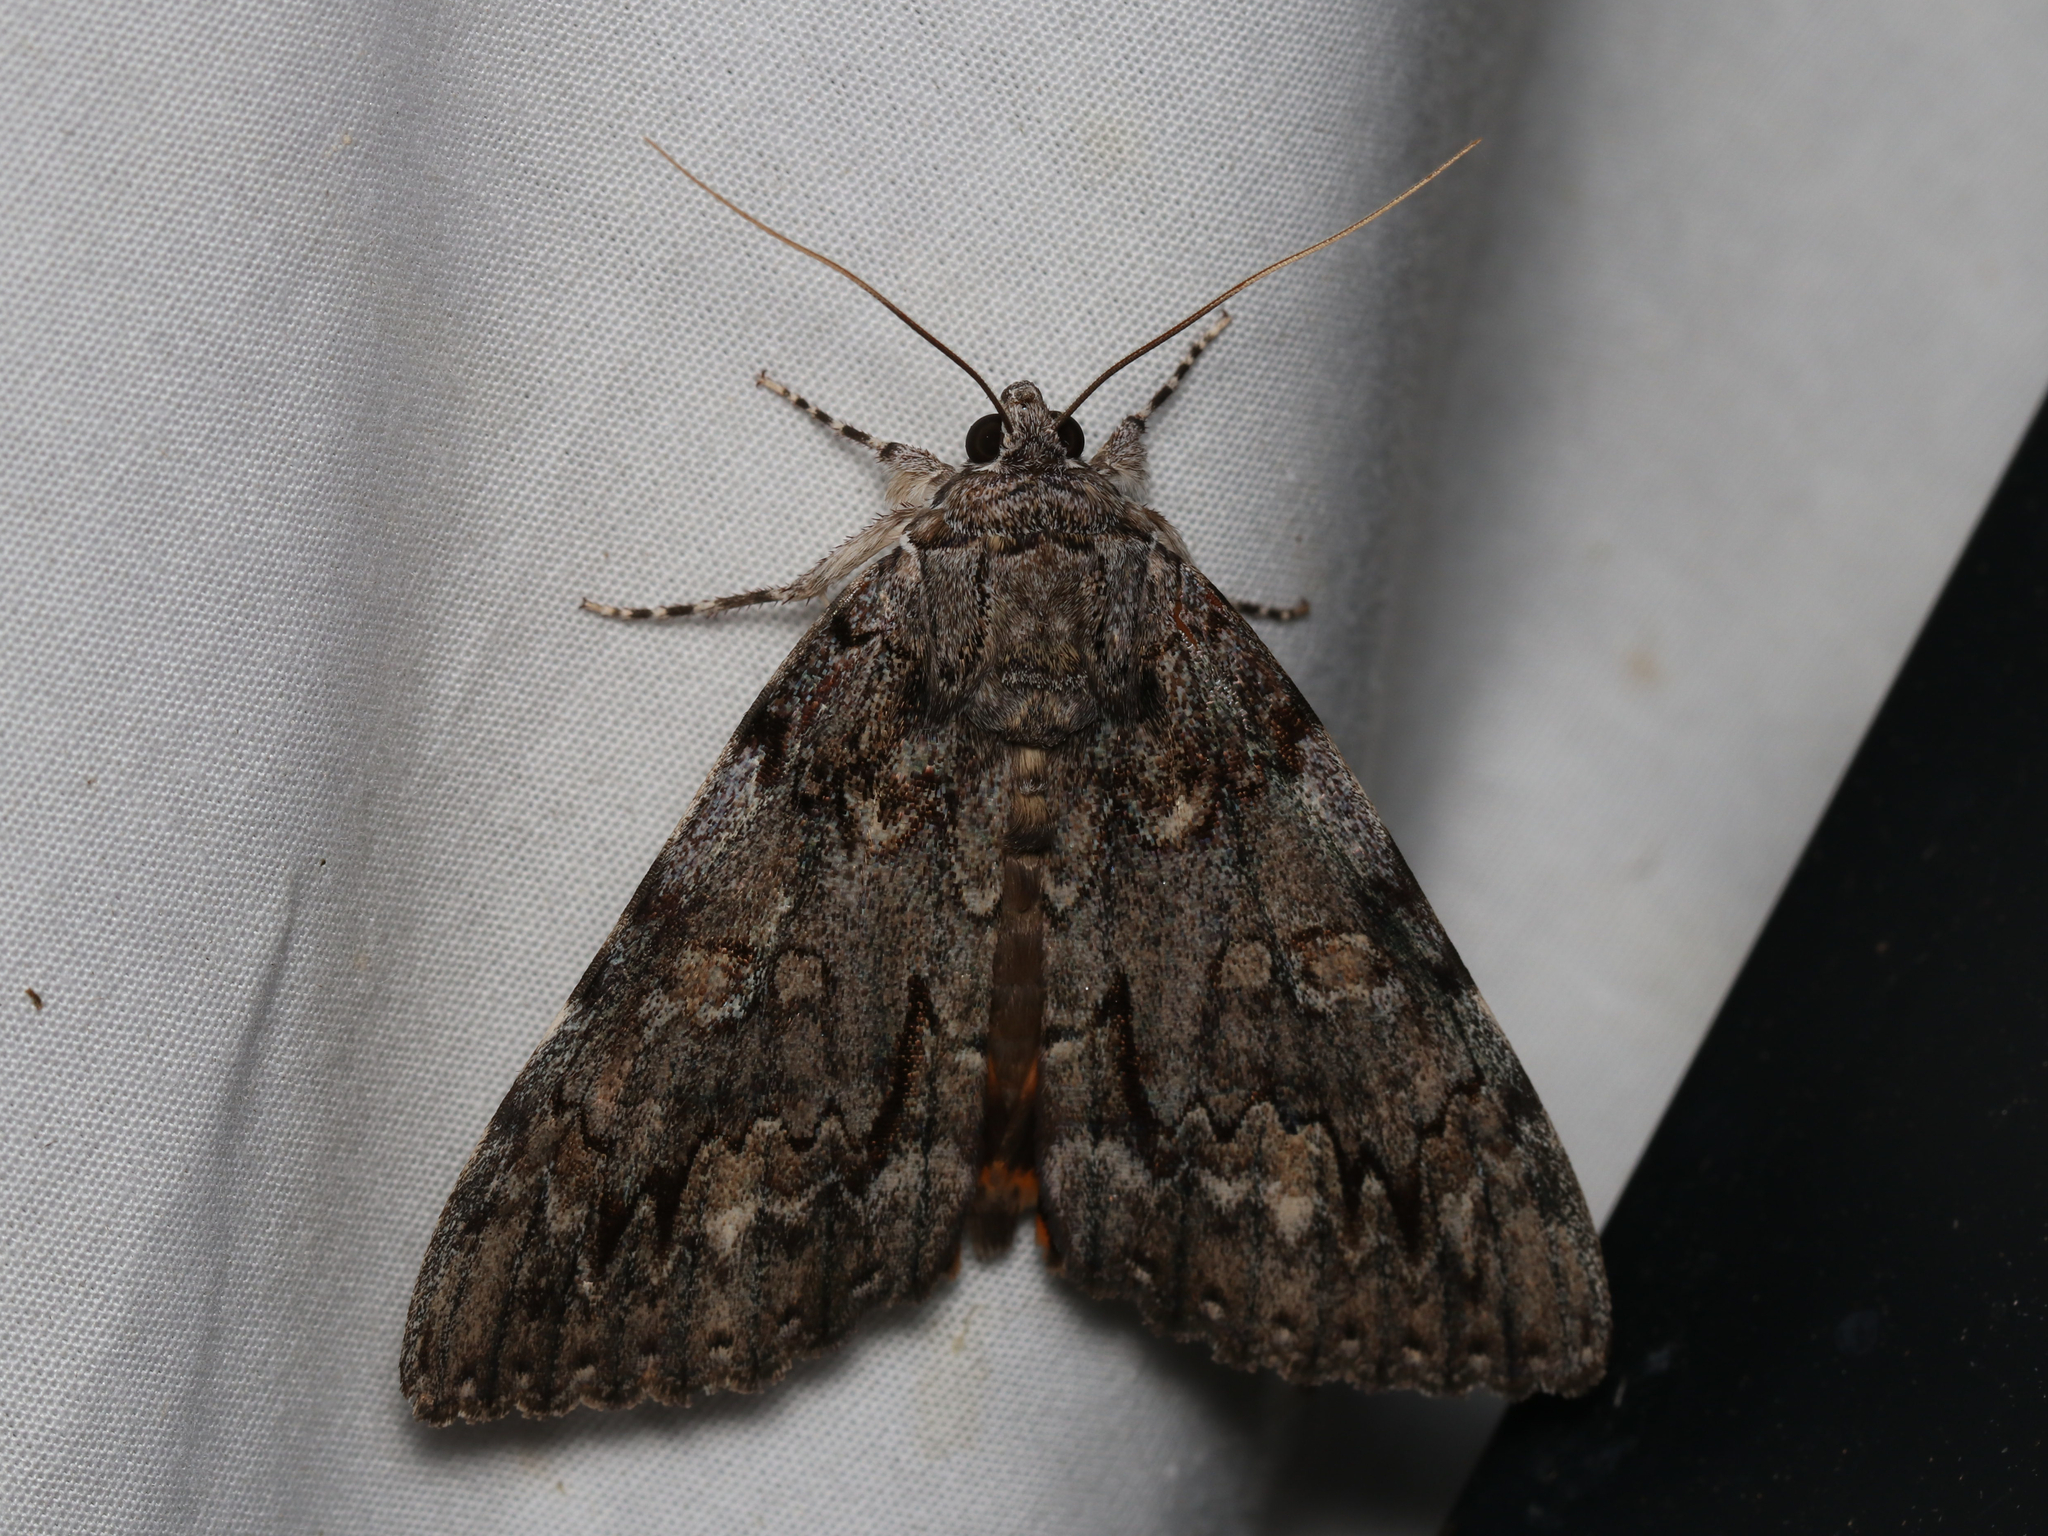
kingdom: Animalia
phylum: Arthropoda
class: Insecta
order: Lepidoptera
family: Erebidae
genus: Catocala
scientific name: Catocala palaeogama
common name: Oldwife underwing
